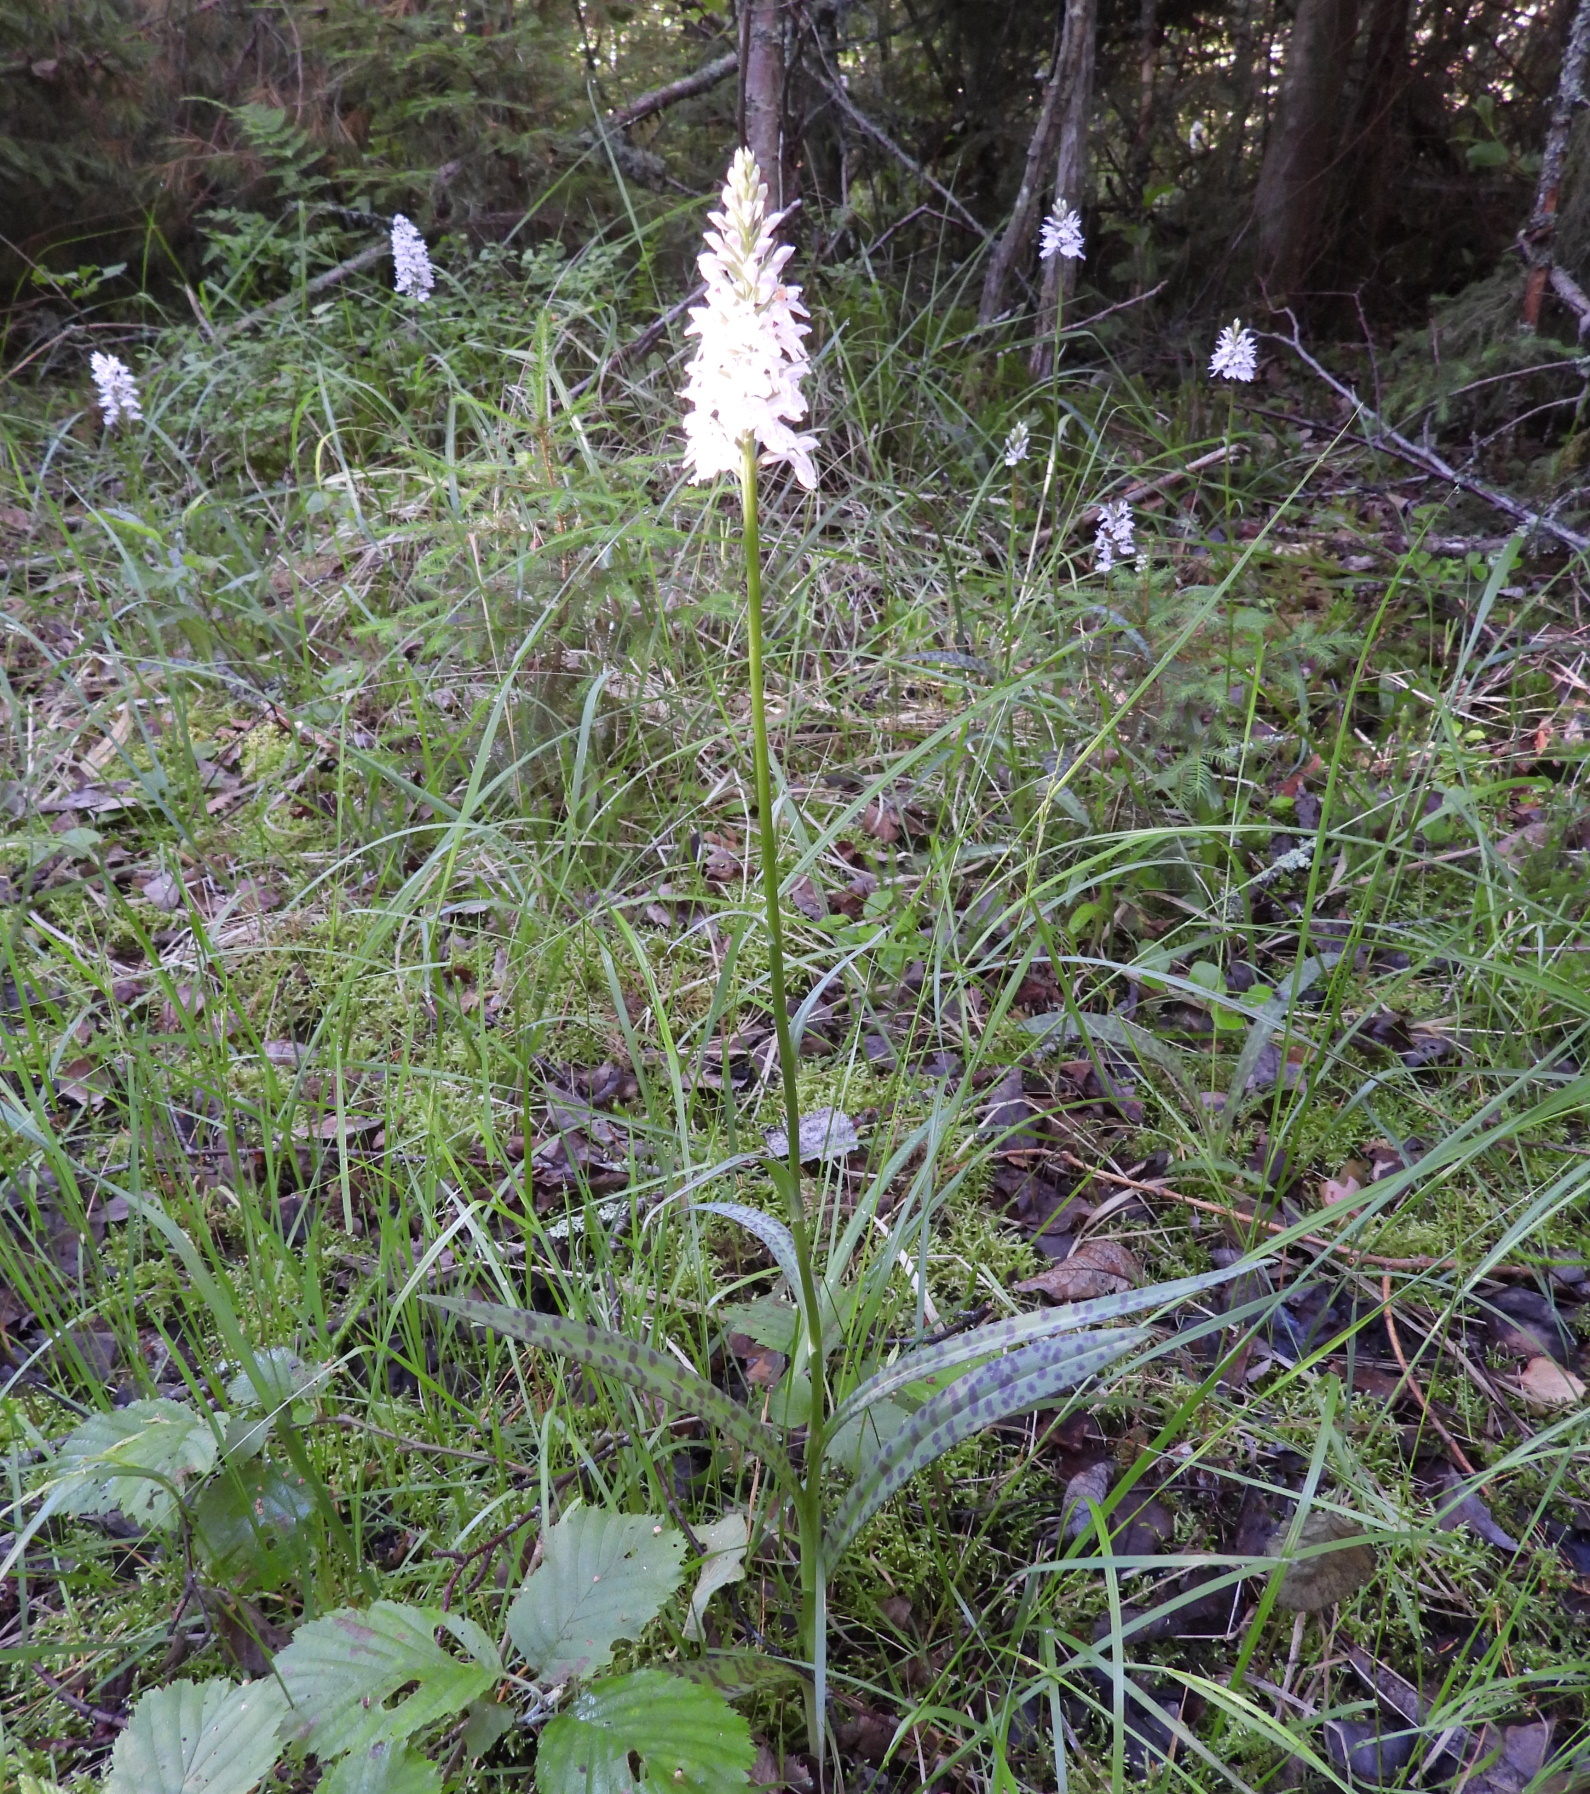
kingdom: Plantae
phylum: Tracheophyta
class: Liliopsida
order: Asparagales
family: Orchidaceae
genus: Dactylorhiza
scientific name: Dactylorhiza maculata
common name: Heath spotted-orchid
